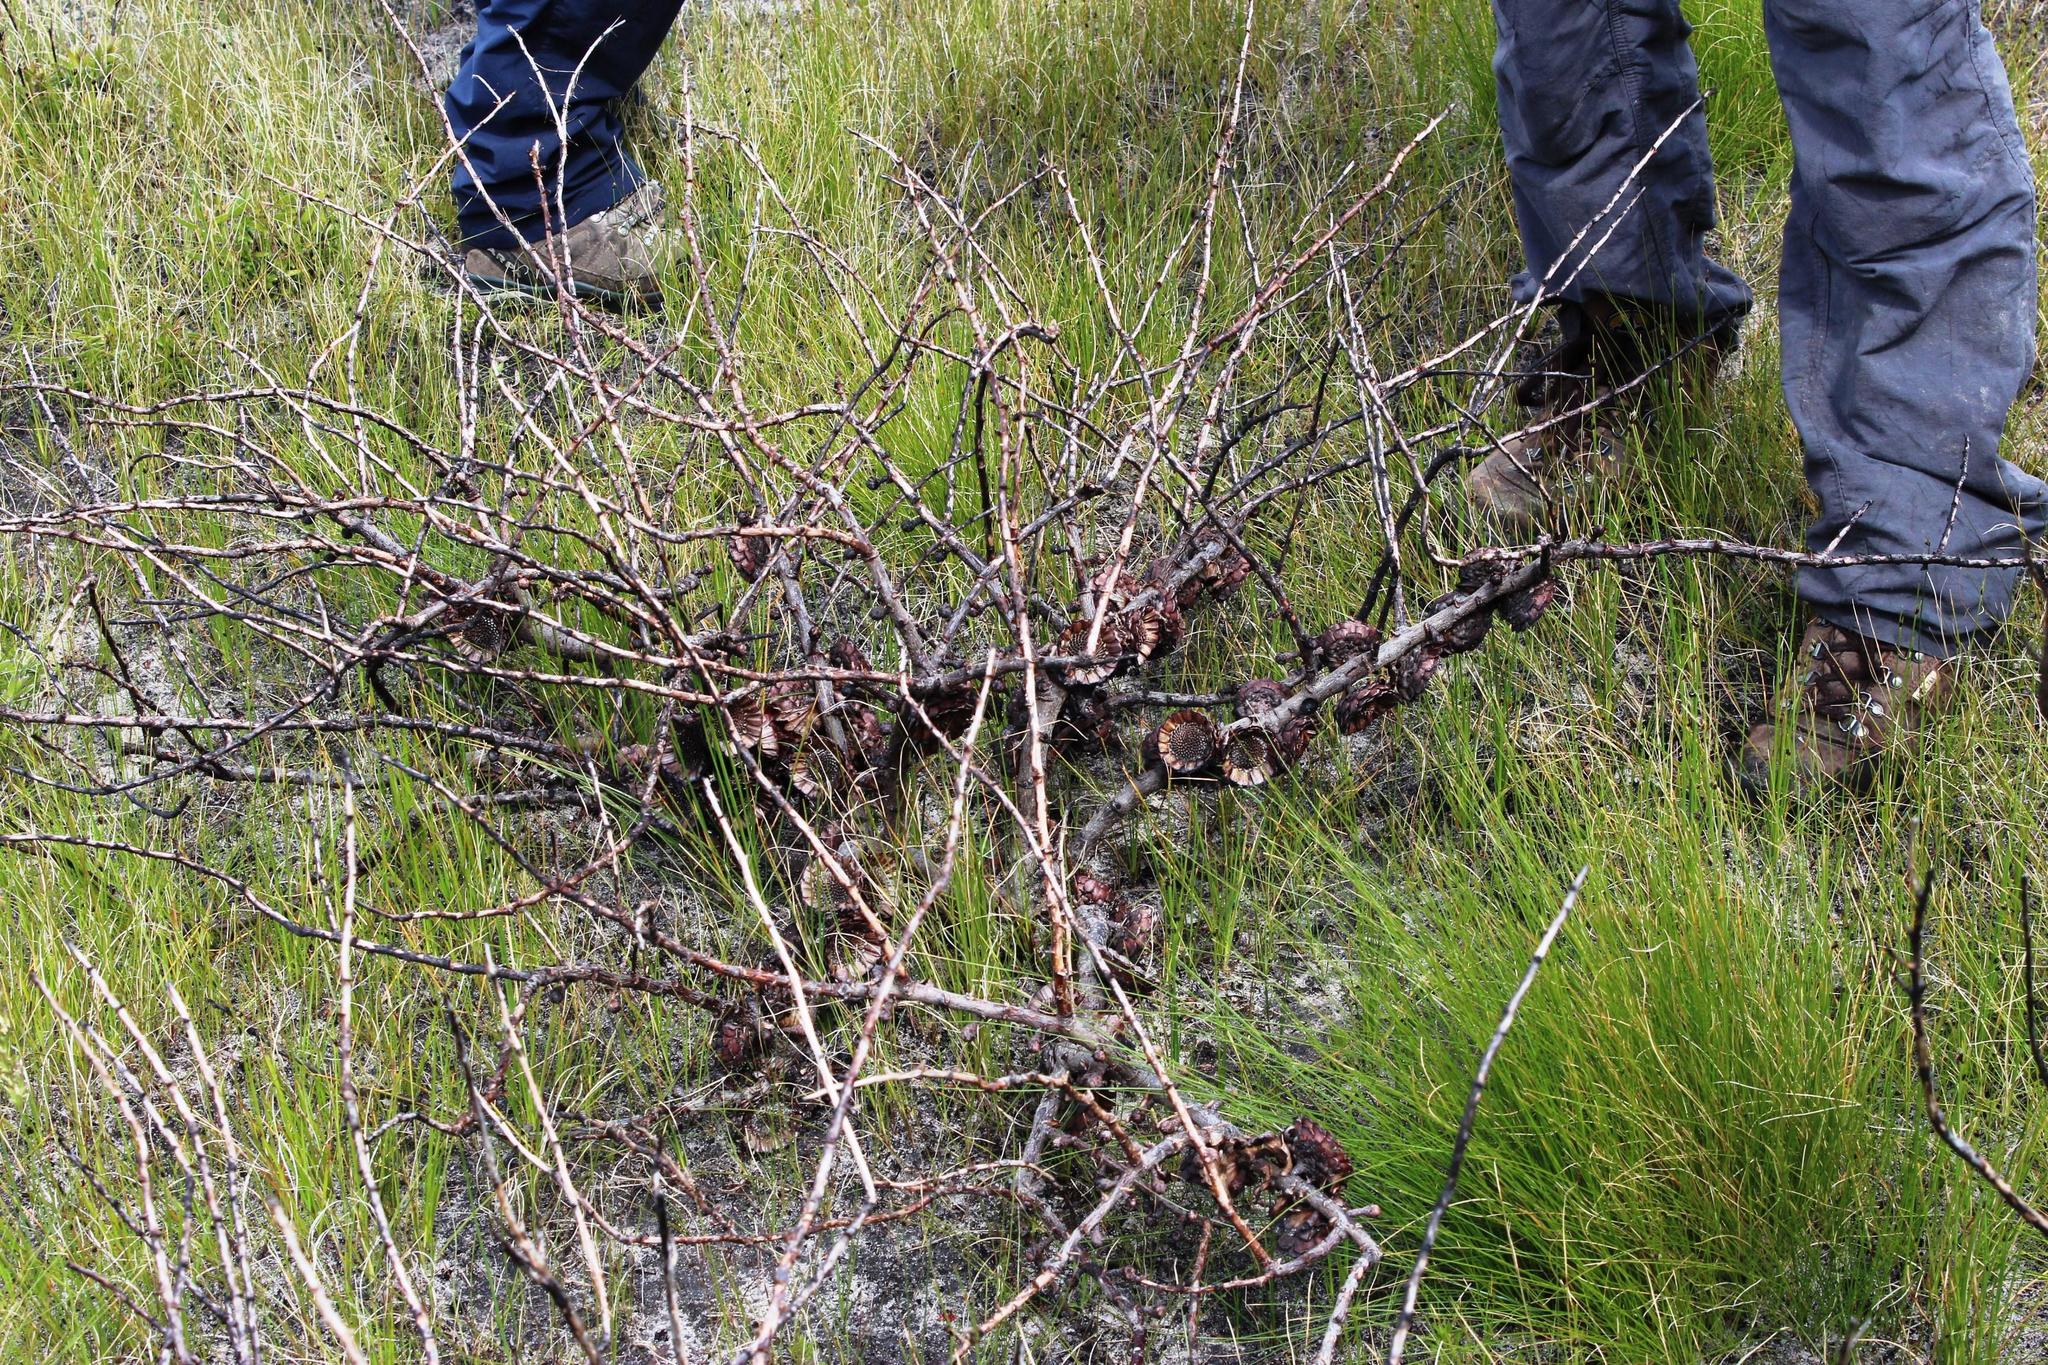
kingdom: Plantae
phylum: Tracheophyta
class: Magnoliopsida
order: Proteales
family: Proteaceae
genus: Protea
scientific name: Protea amplexicaulis
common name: Clasping-leaf sugarbush
